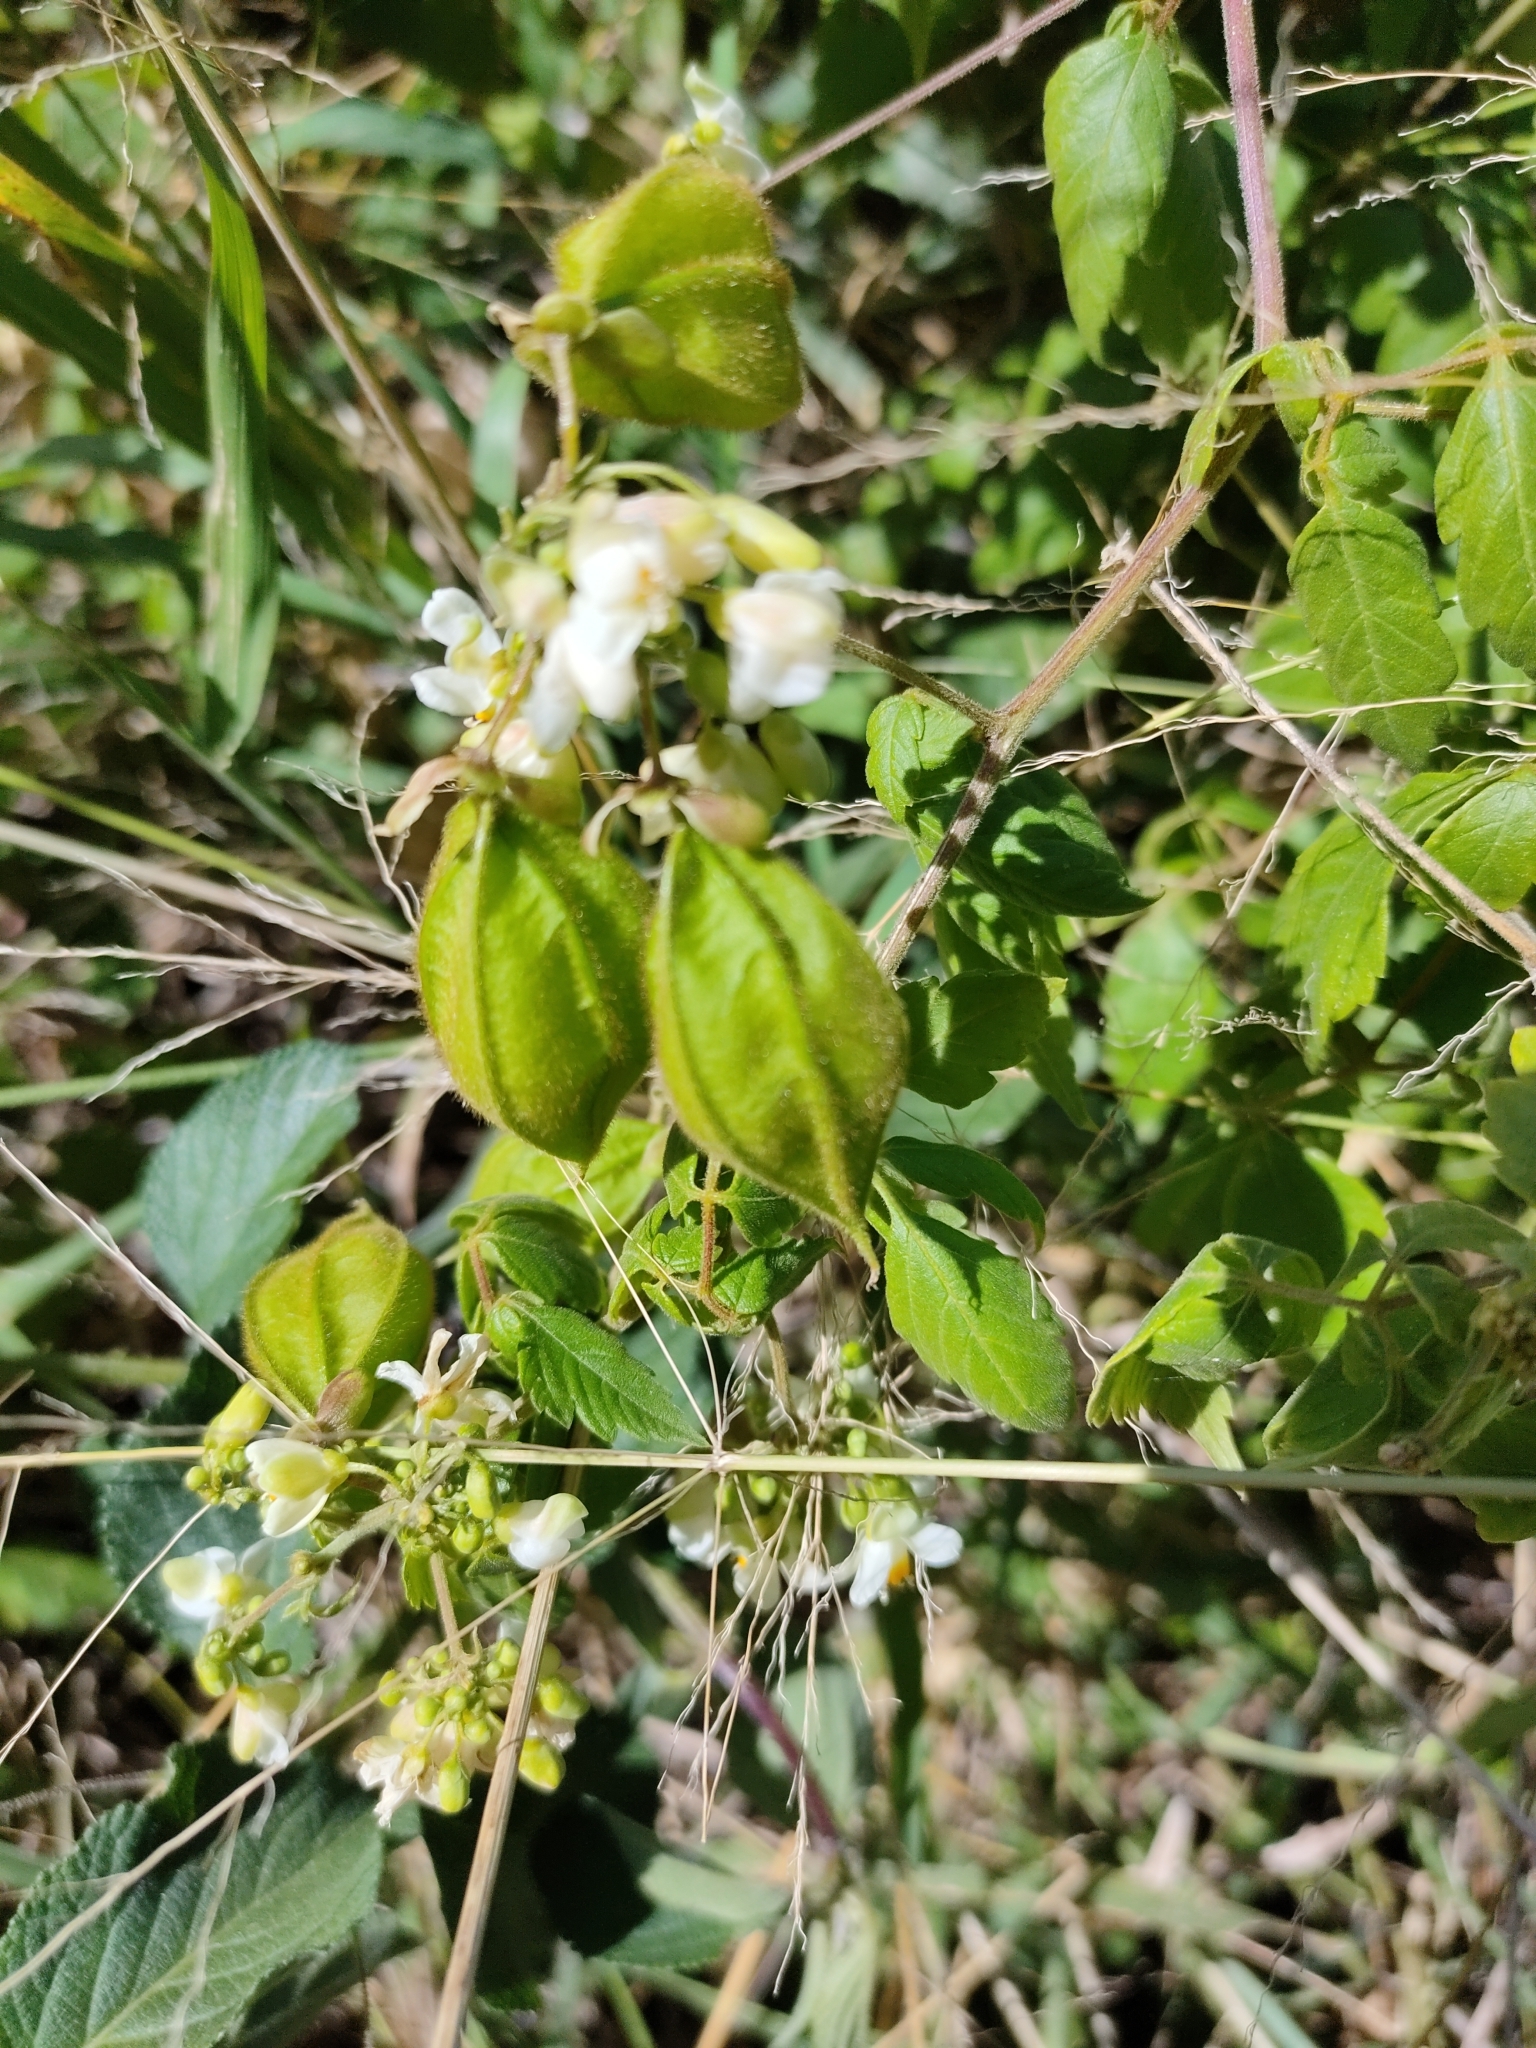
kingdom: Plantae
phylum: Tracheophyta
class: Magnoliopsida
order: Sapindales
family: Sapindaceae
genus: Cardiospermum
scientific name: Cardiospermum grandiflorum
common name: Balloon vine
